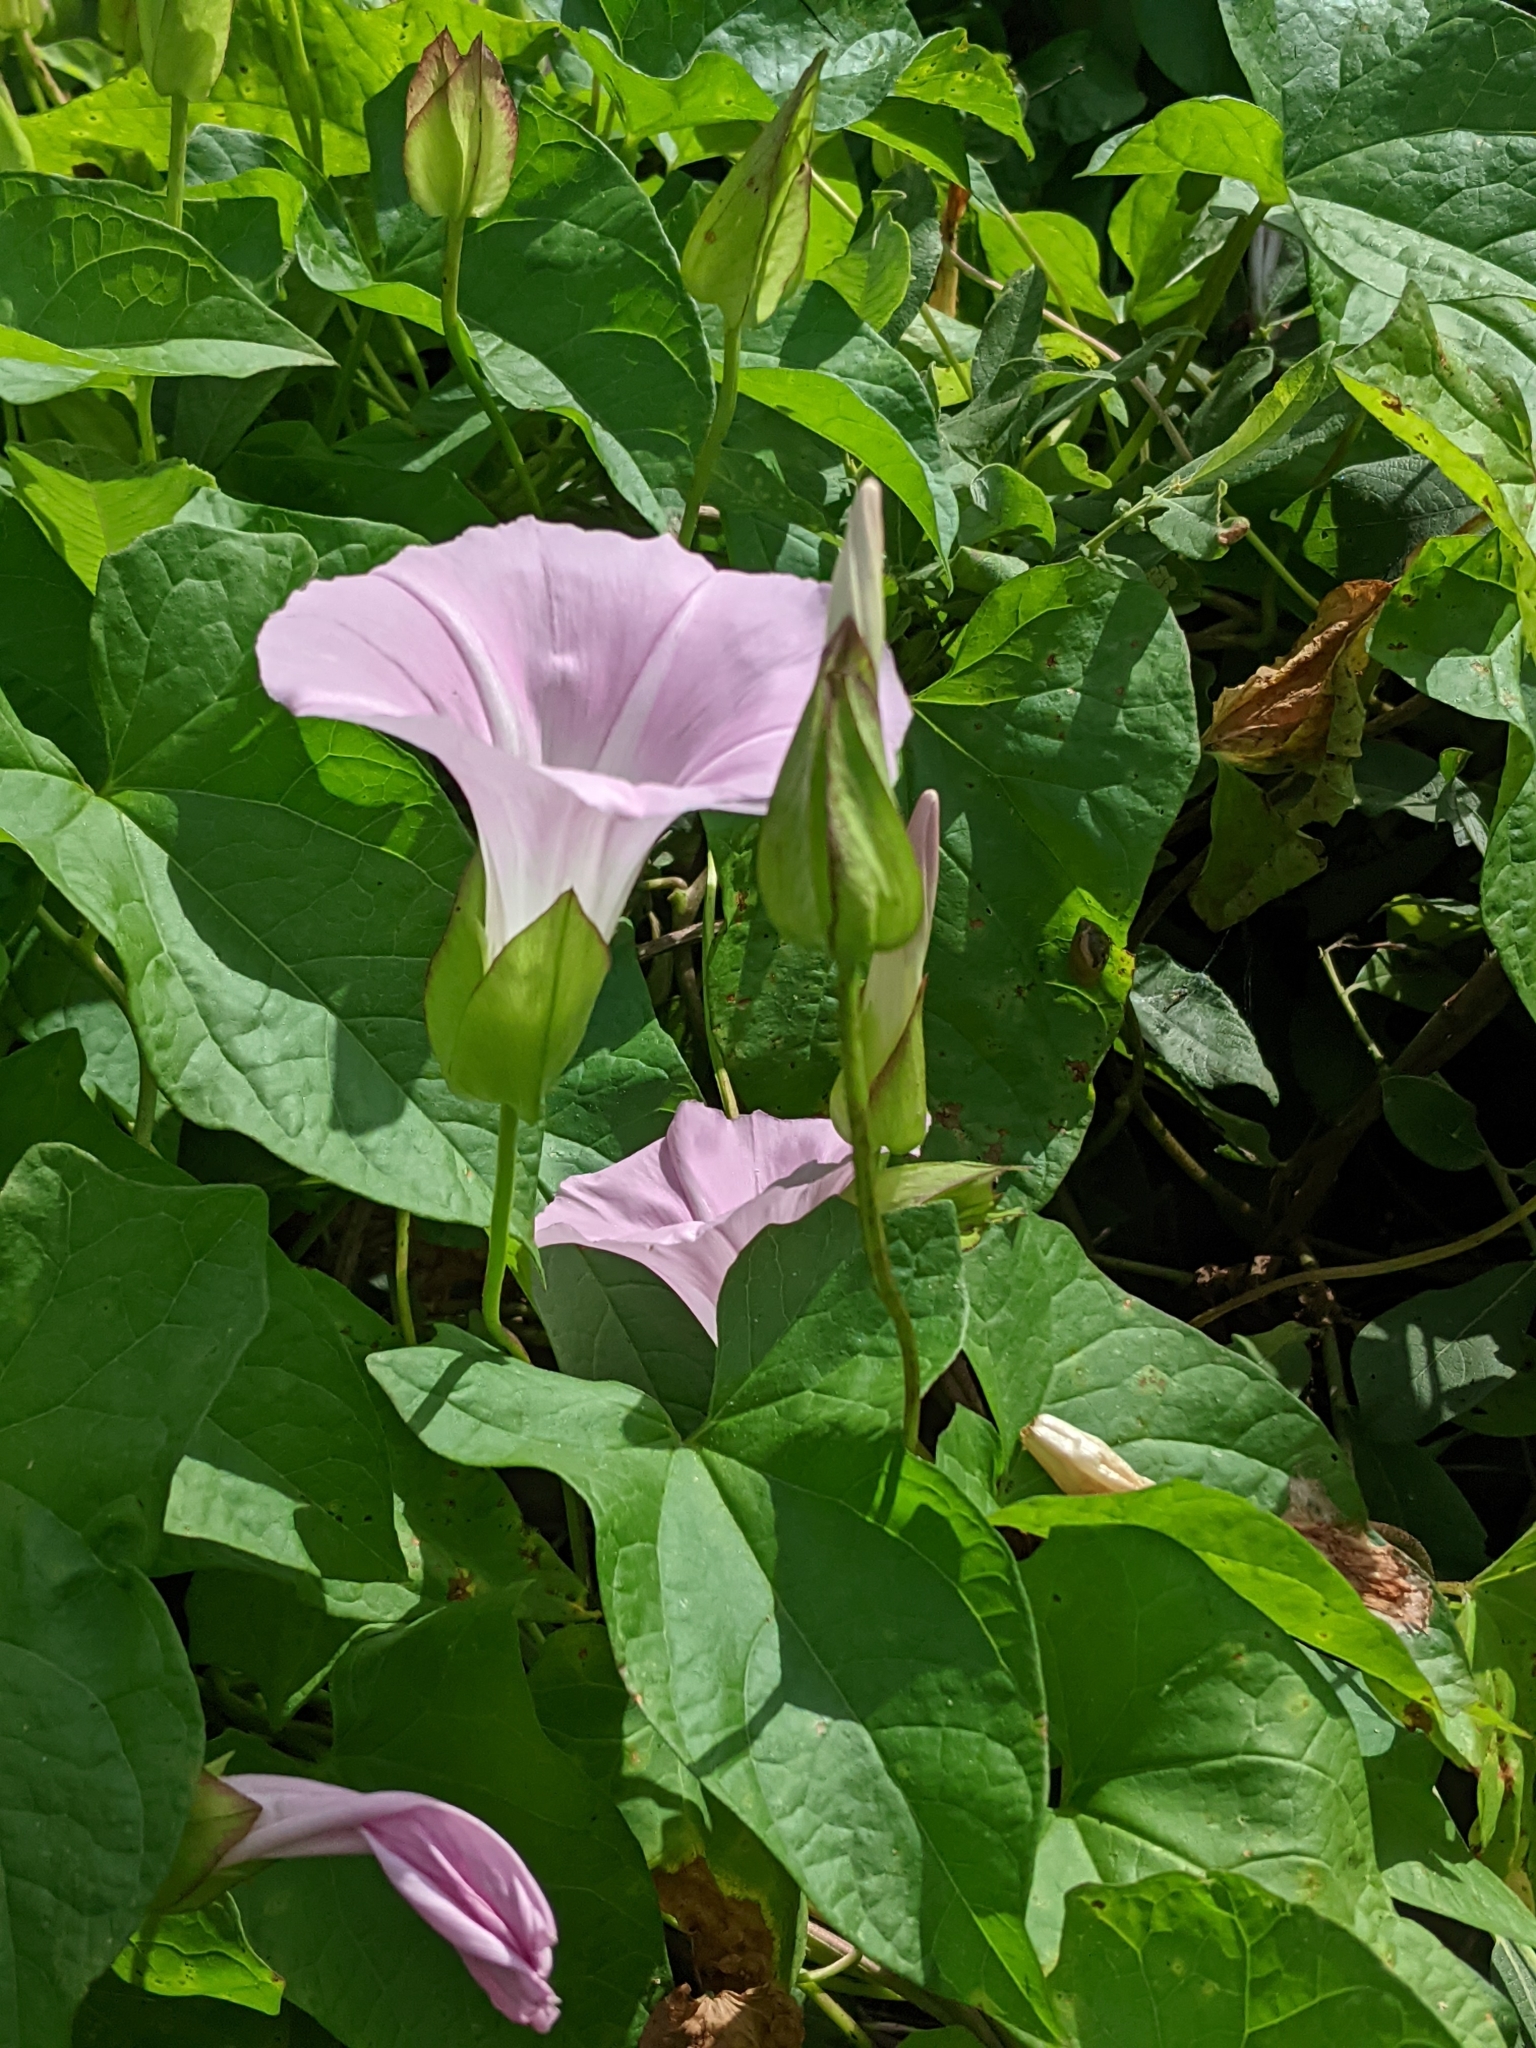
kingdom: Plantae
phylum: Tracheophyta
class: Magnoliopsida
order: Solanales
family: Convolvulaceae
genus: Calystegia
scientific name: Calystegia sepium
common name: Hedge bindweed
